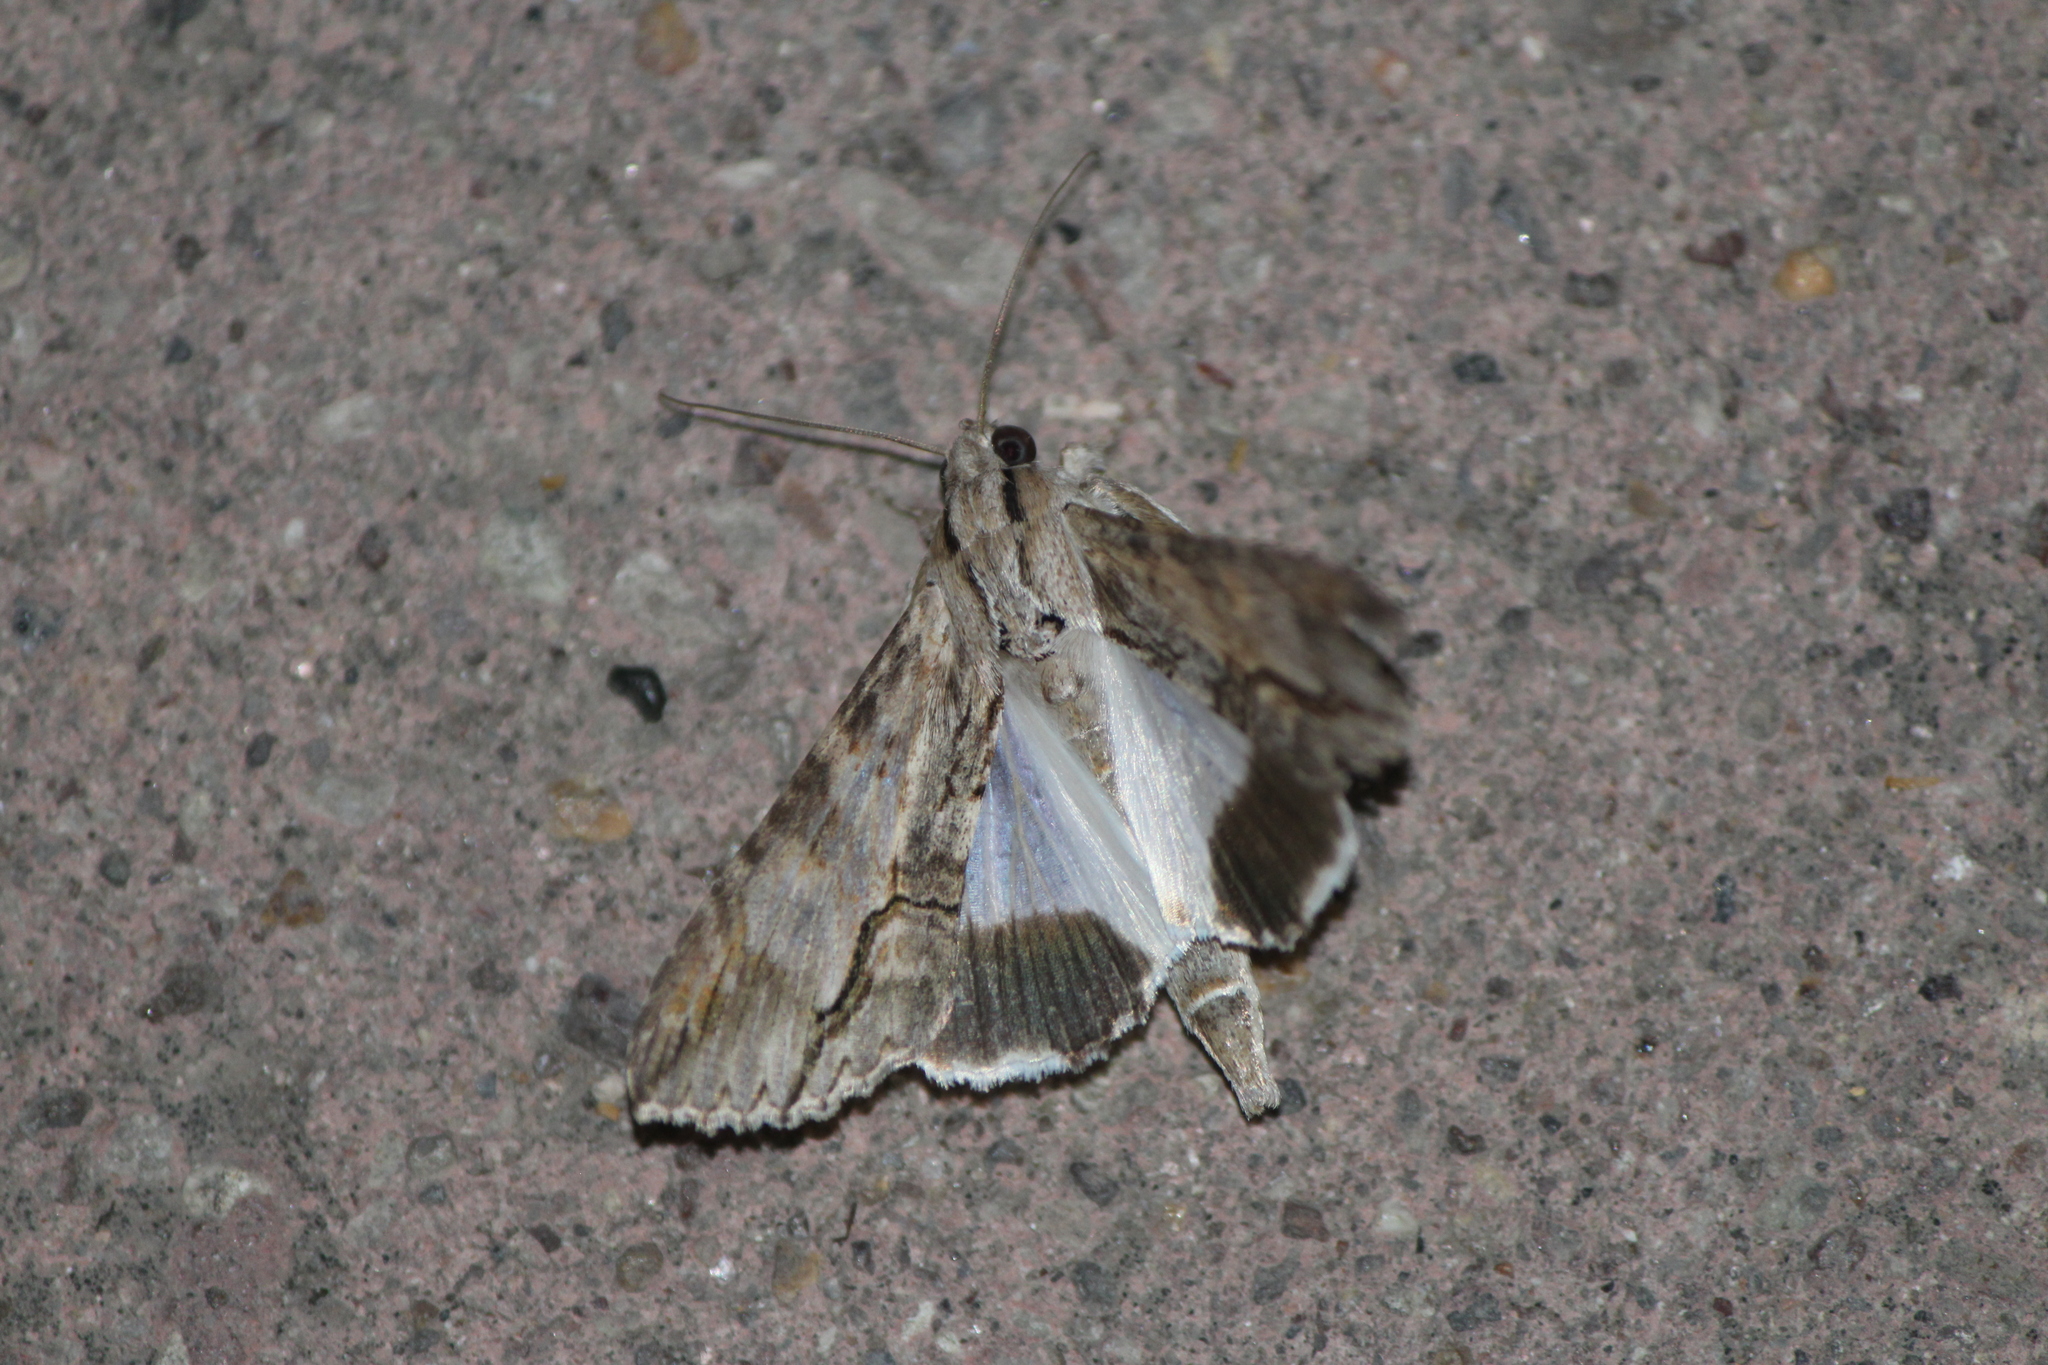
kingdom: Animalia
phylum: Arthropoda
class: Insecta
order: Lepidoptera
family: Erebidae
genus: Melipotis
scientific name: Melipotis acontioides
